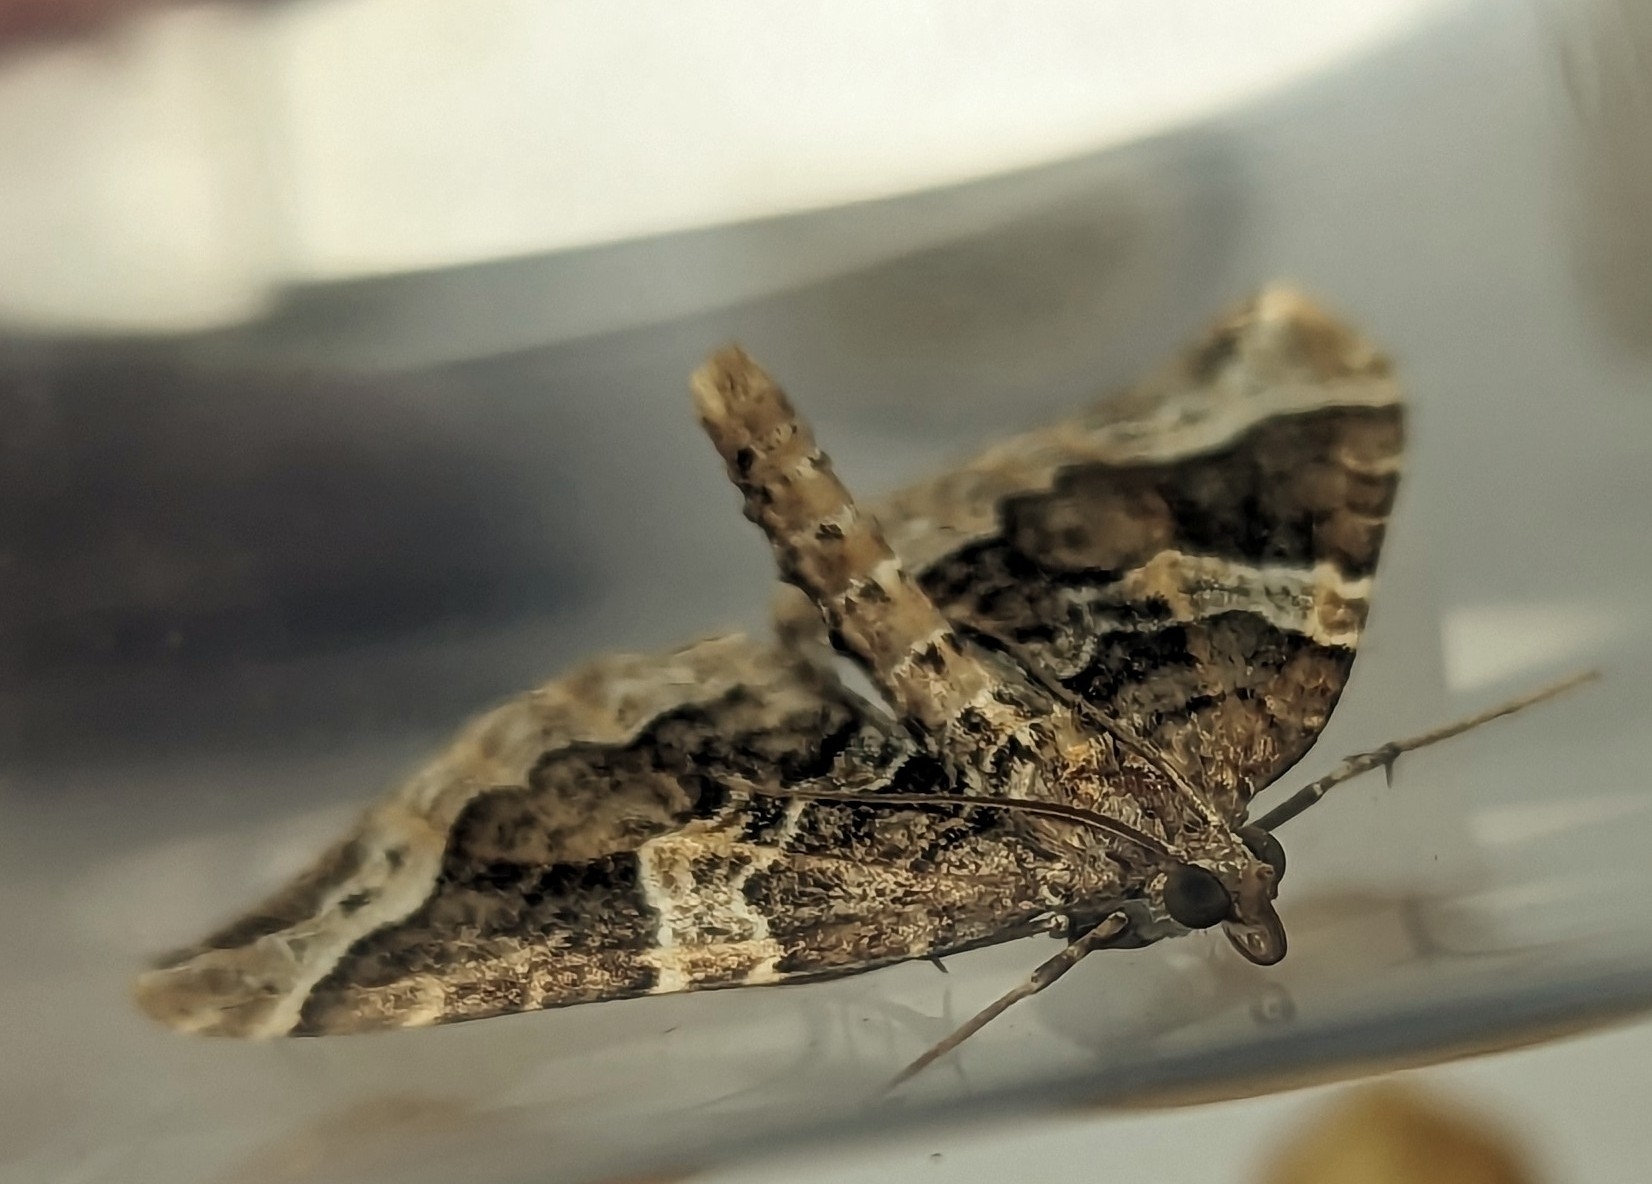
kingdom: Animalia
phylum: Arthropoda
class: Insecta
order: Lepidoptera
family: Geometridae
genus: Eulithis
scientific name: Eulithis prunata
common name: Phoenix
